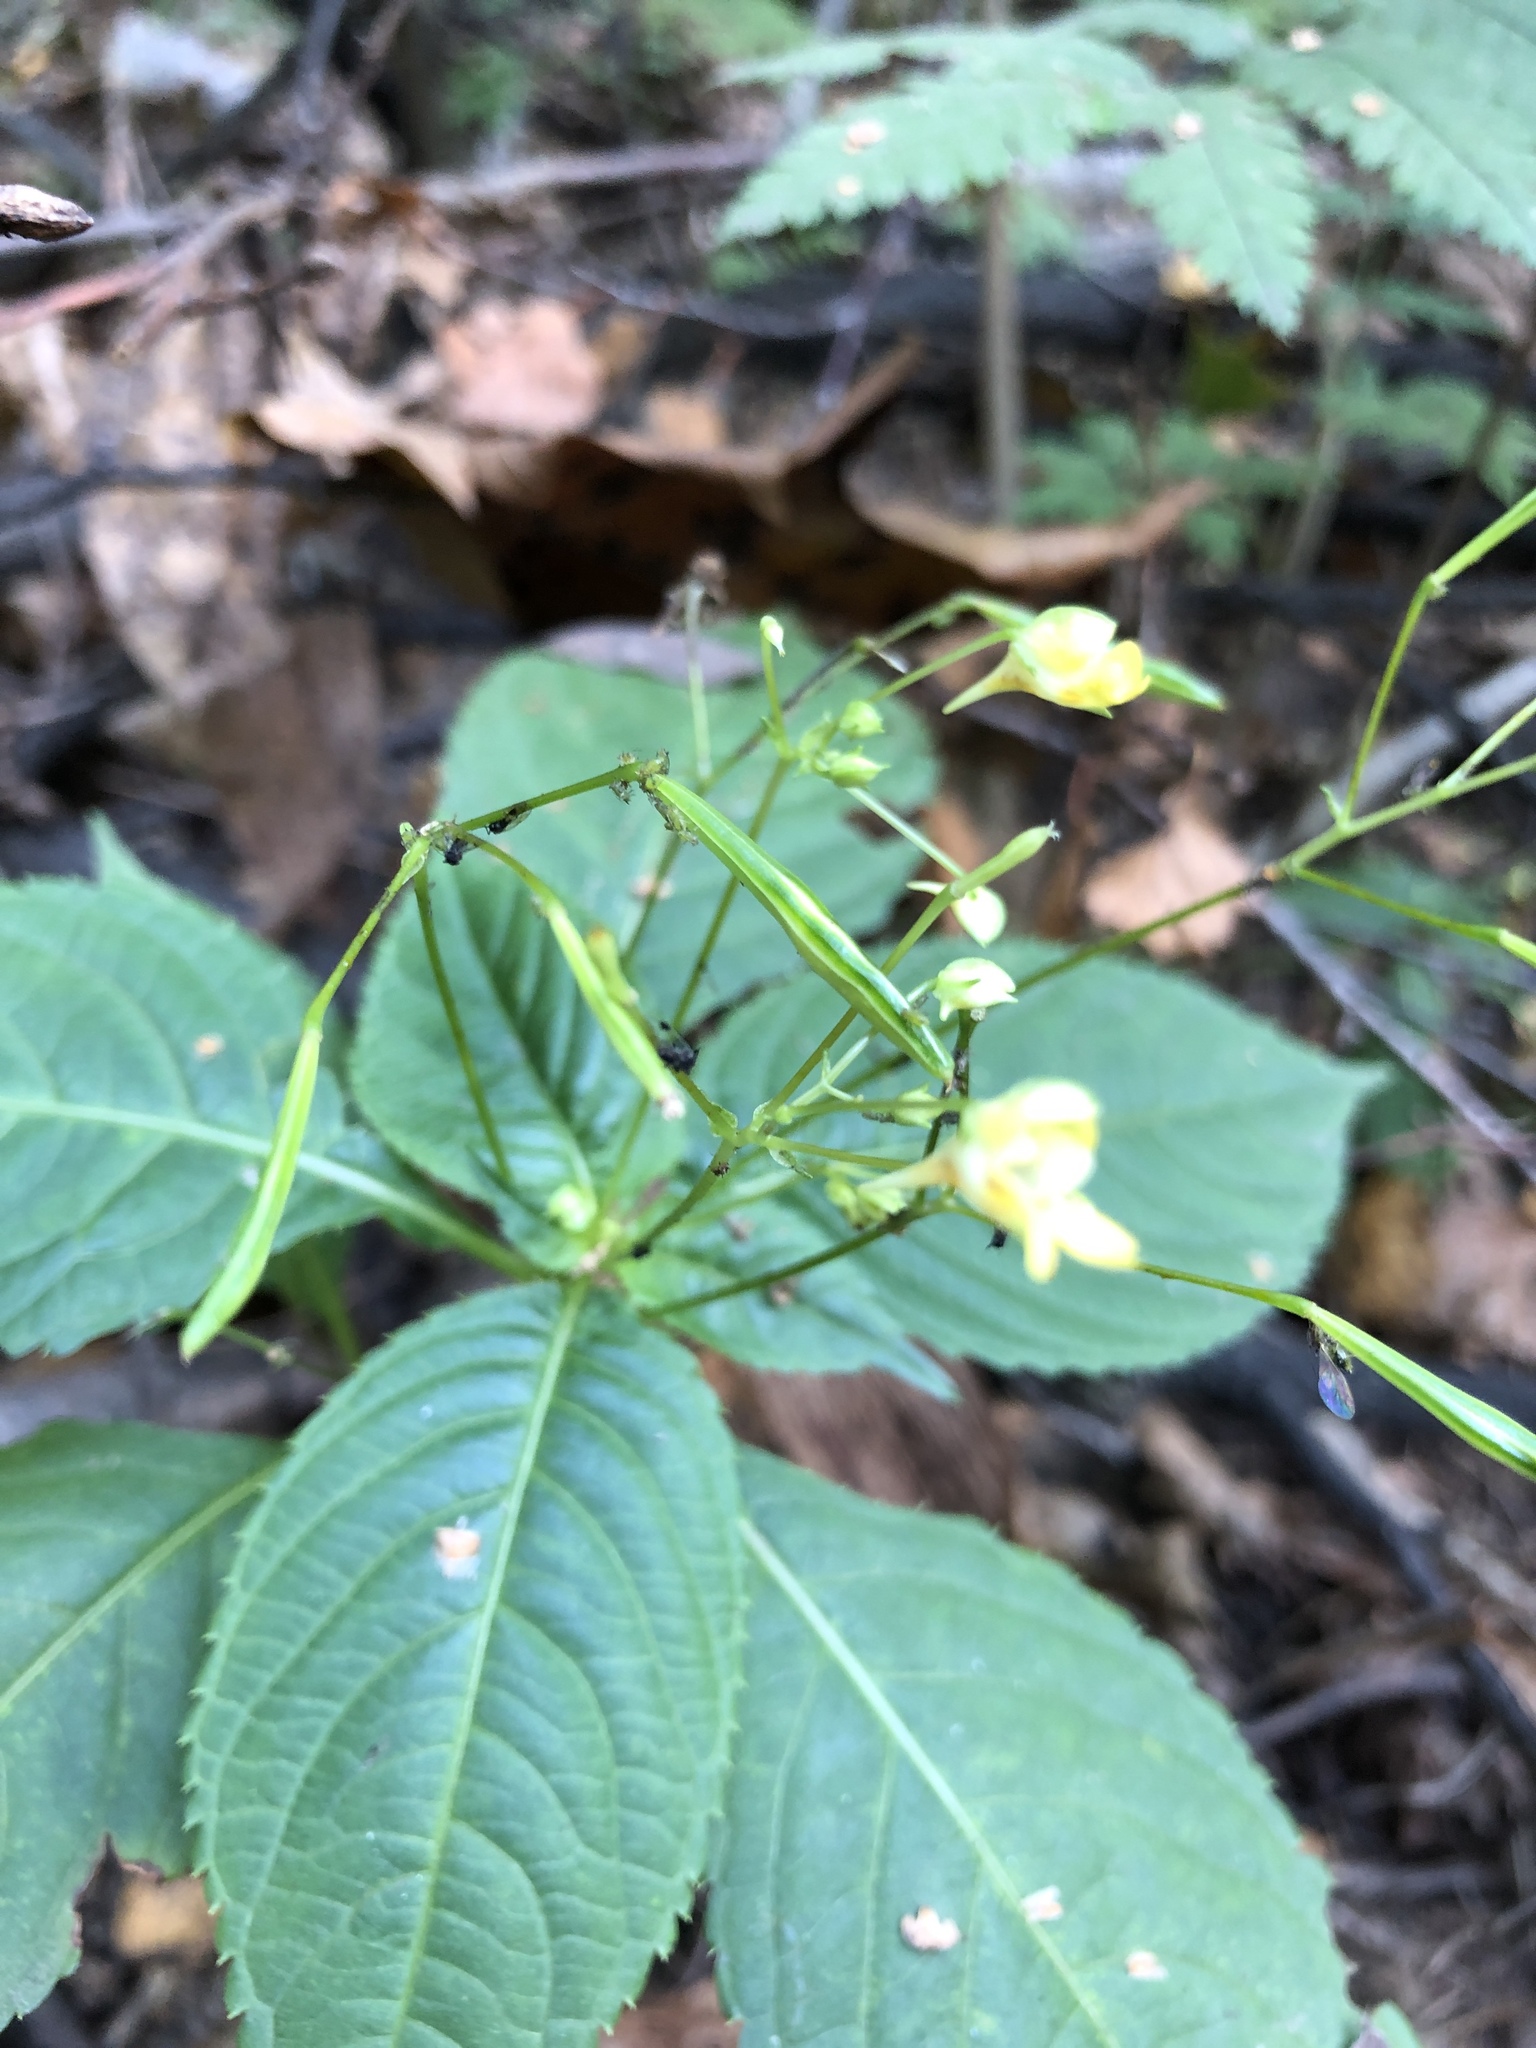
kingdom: Plantae
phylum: Tracheophyta
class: Magnoliopsida
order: Ericales
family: Balsaminaceae
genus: Impatiens
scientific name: Impatiens parviflora
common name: Small balsam
